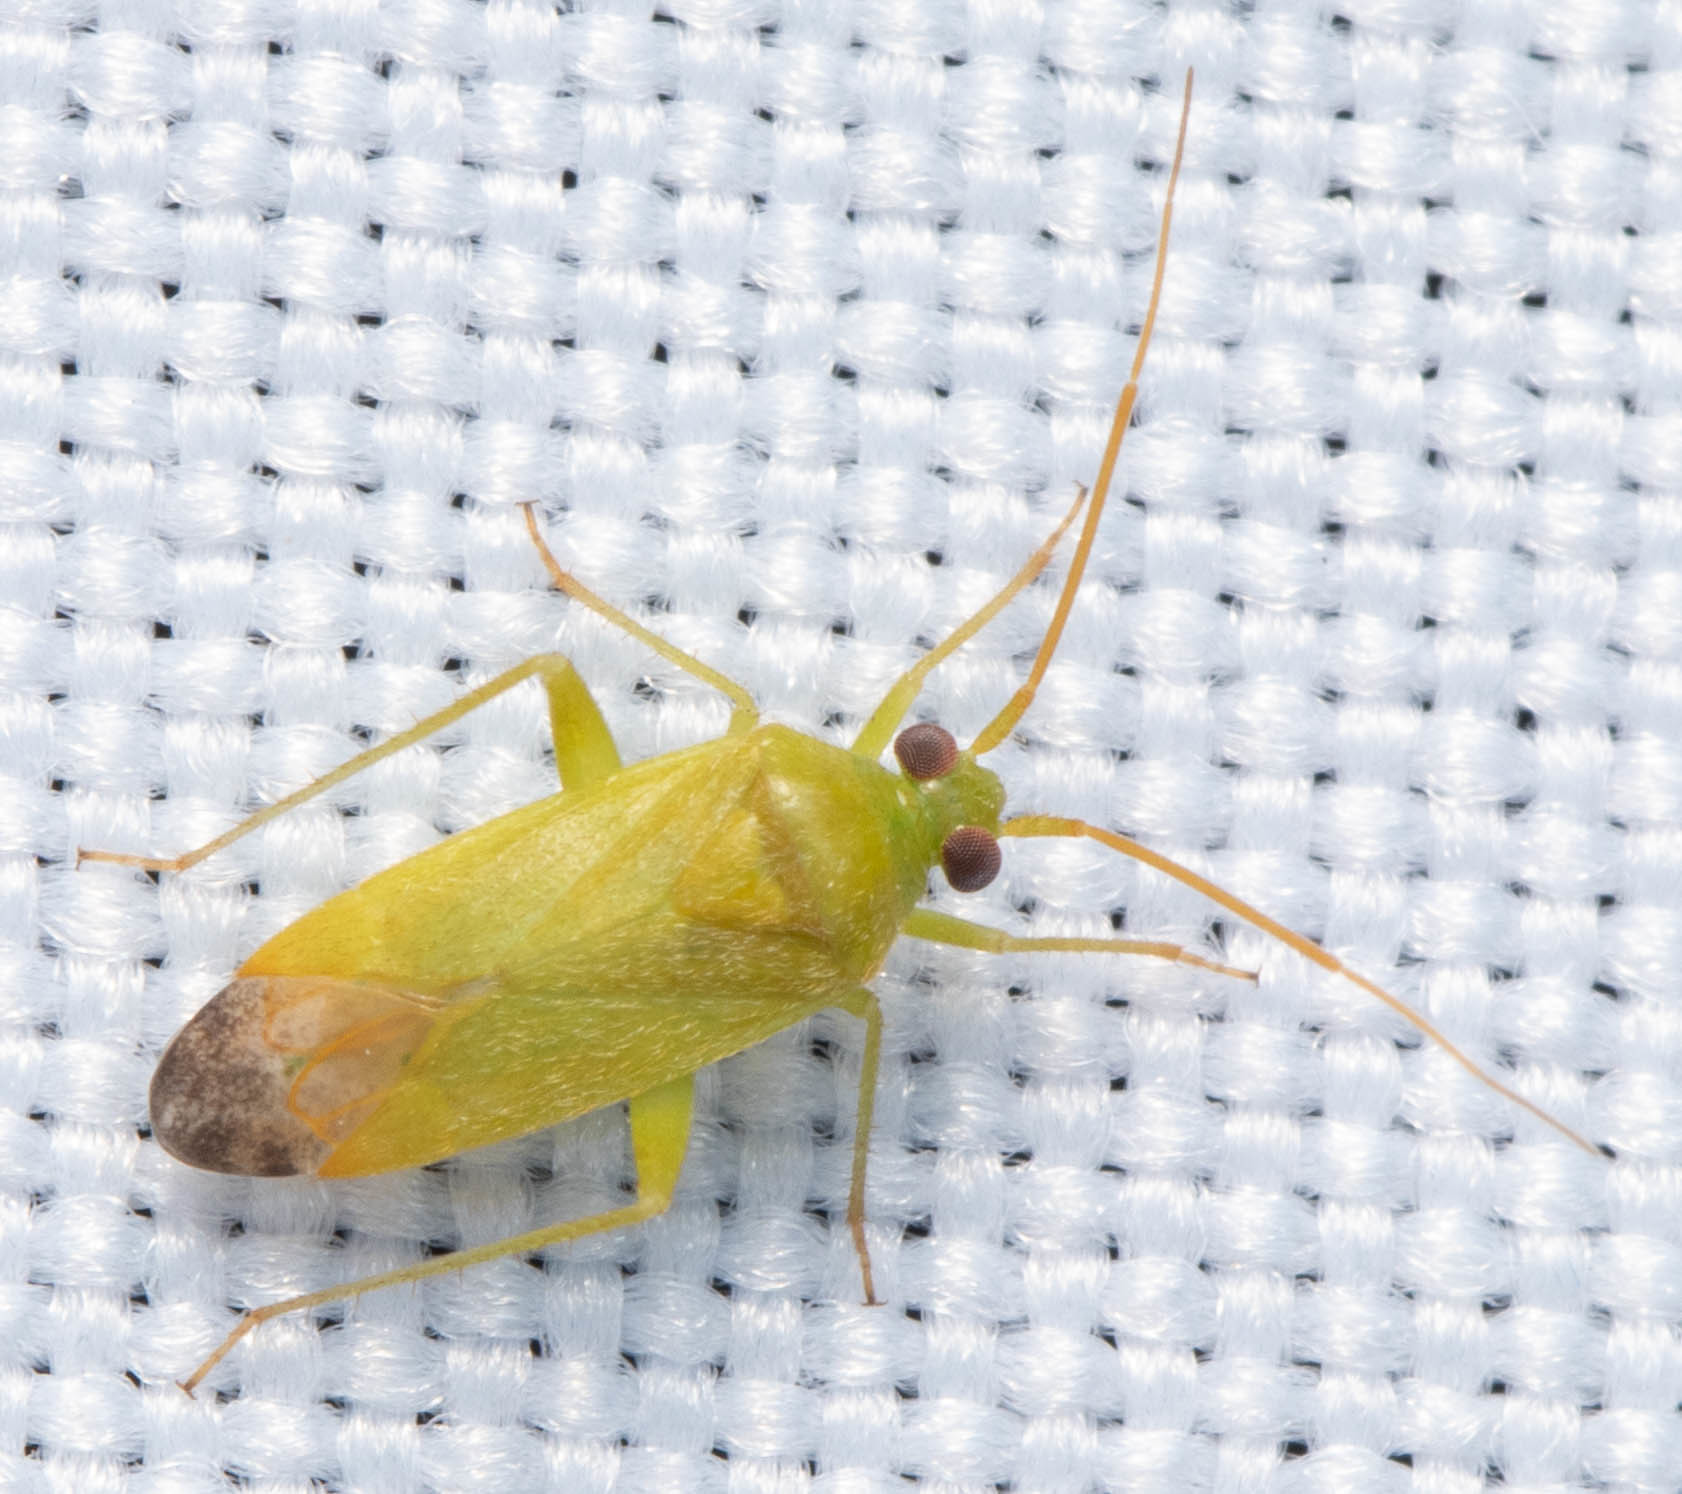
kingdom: Animalia
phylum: Arthropoda
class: Insecta
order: Hemiptera
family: Miridae
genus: Phytocoris
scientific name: Phytocoris vanduzeei
